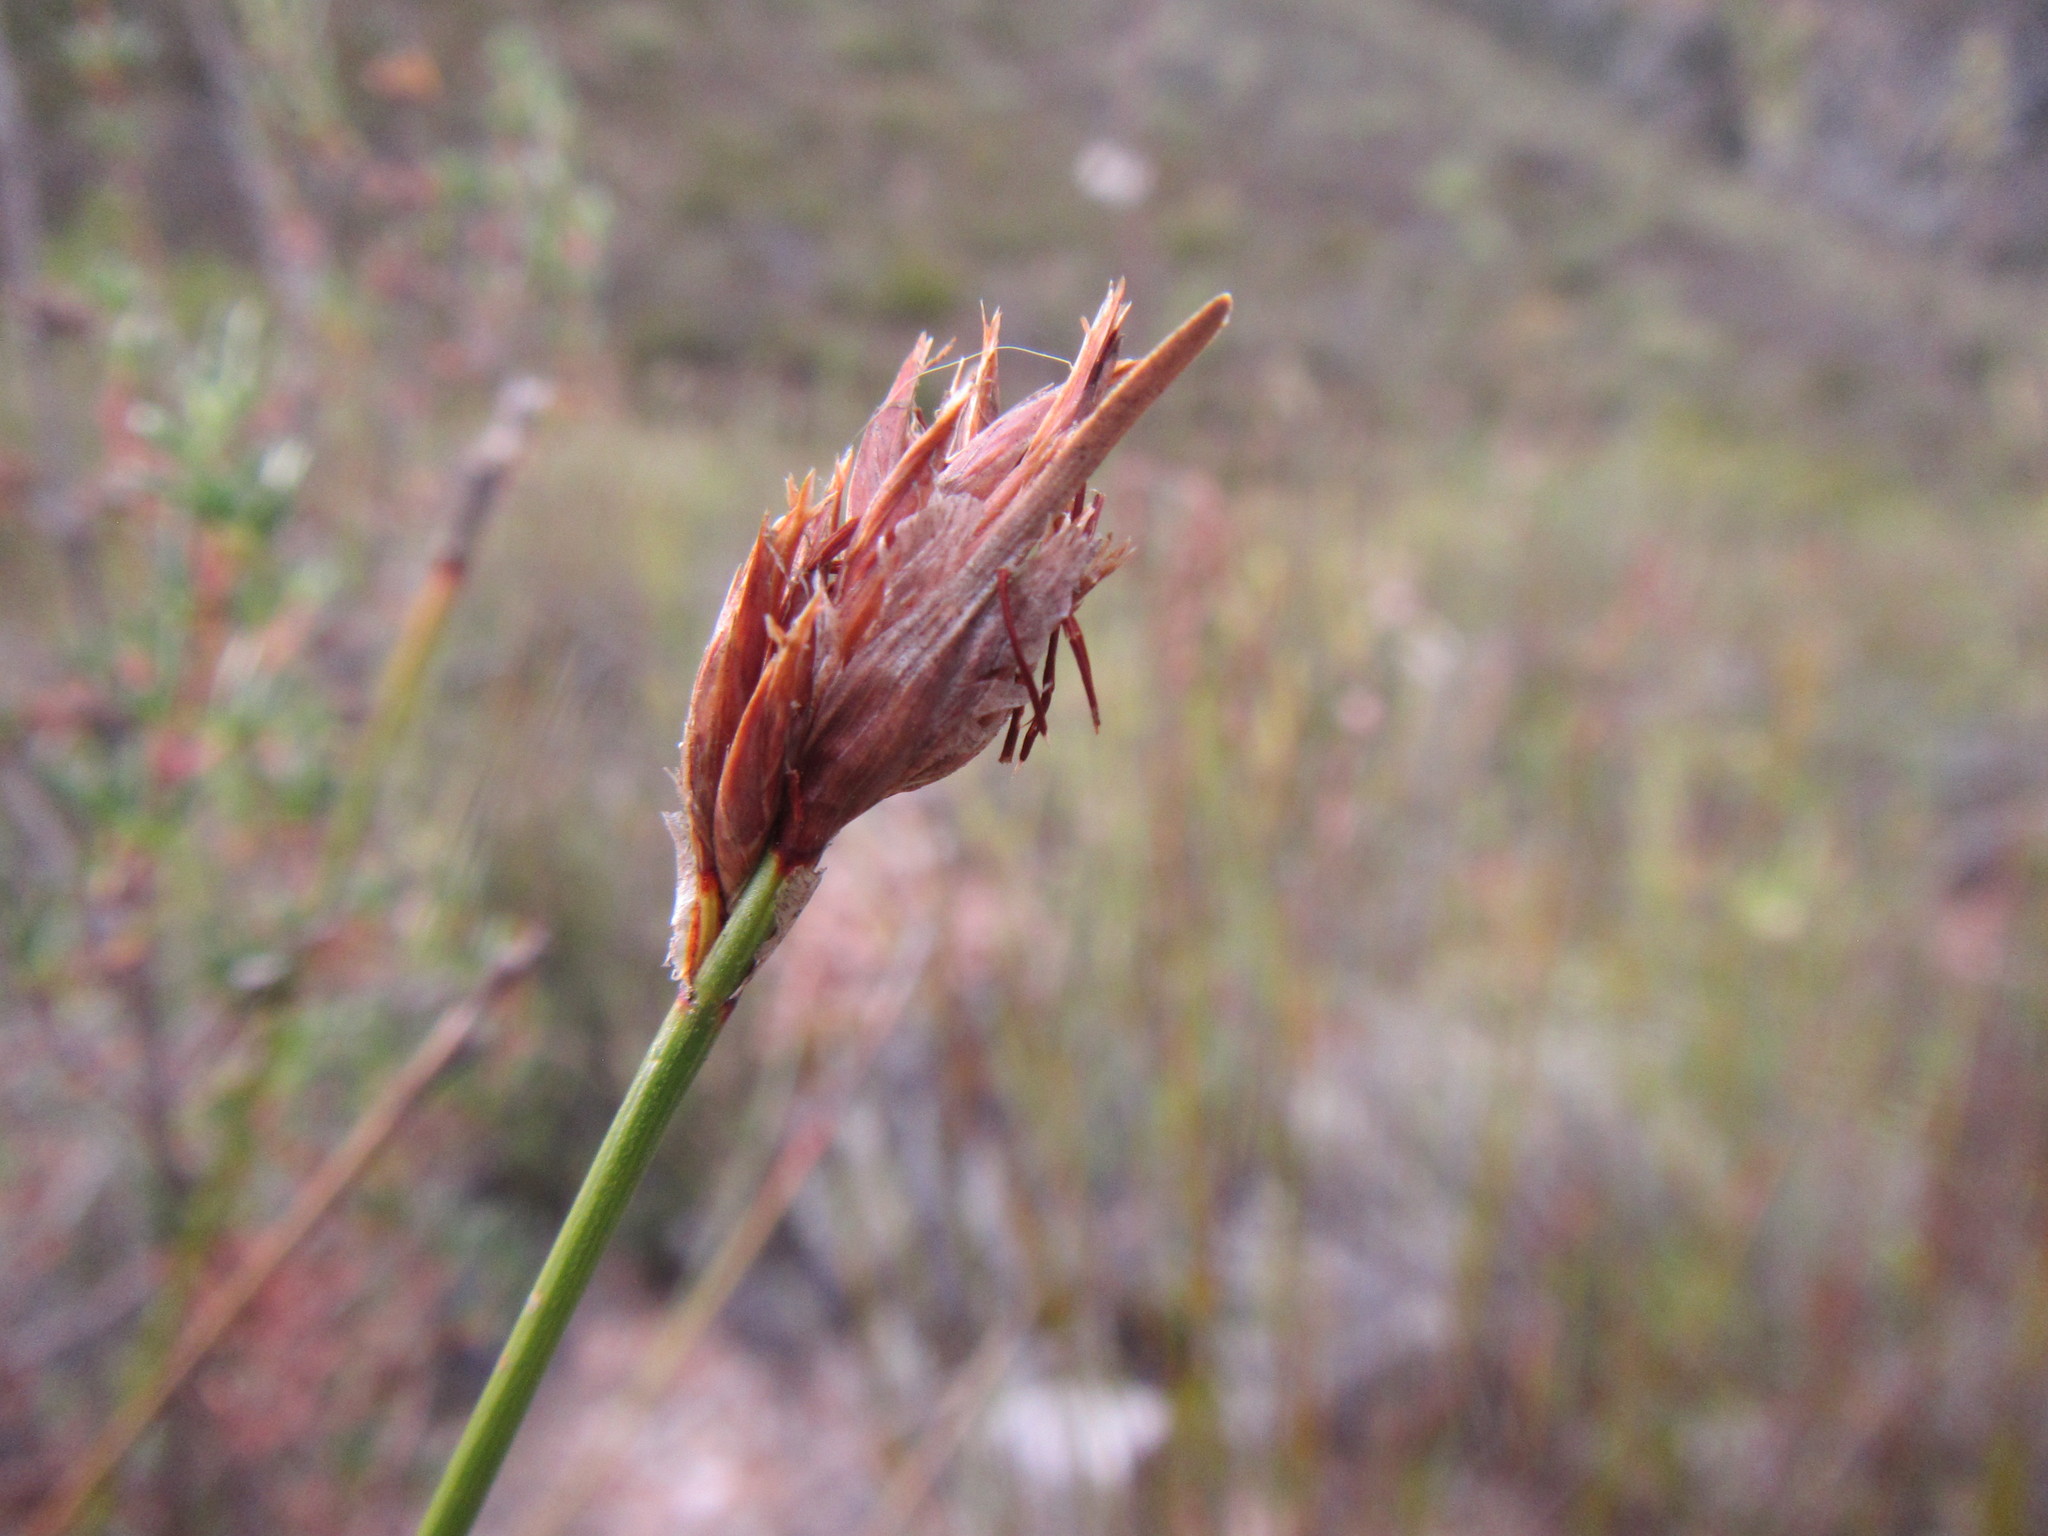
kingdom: Plantae
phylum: Tracheophyta
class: Liliopsida
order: Poales
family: Cyperaceae
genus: Schoenus
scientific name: Schoenus megacarpus
